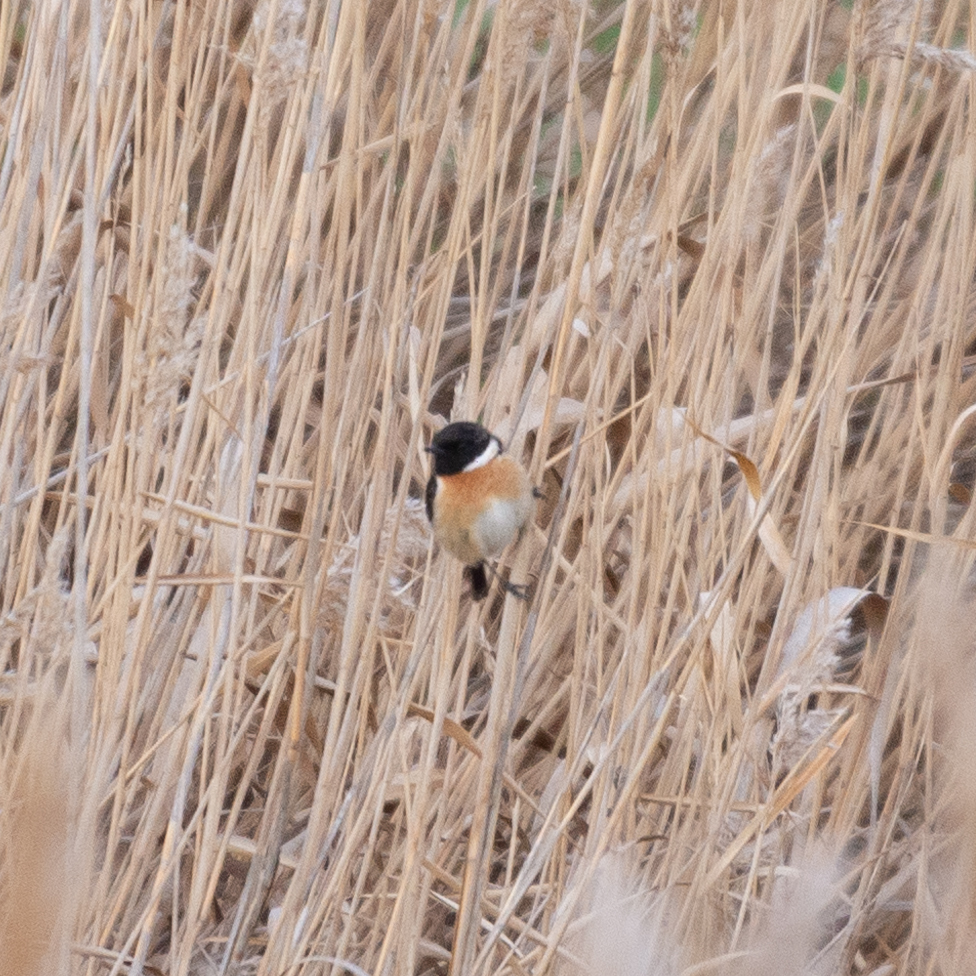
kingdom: Animalia
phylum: Chordata
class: Aves
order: Passeriformes
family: Muscicapidae
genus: Saxicola
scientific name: Saxicola rubicola
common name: European stonechat
